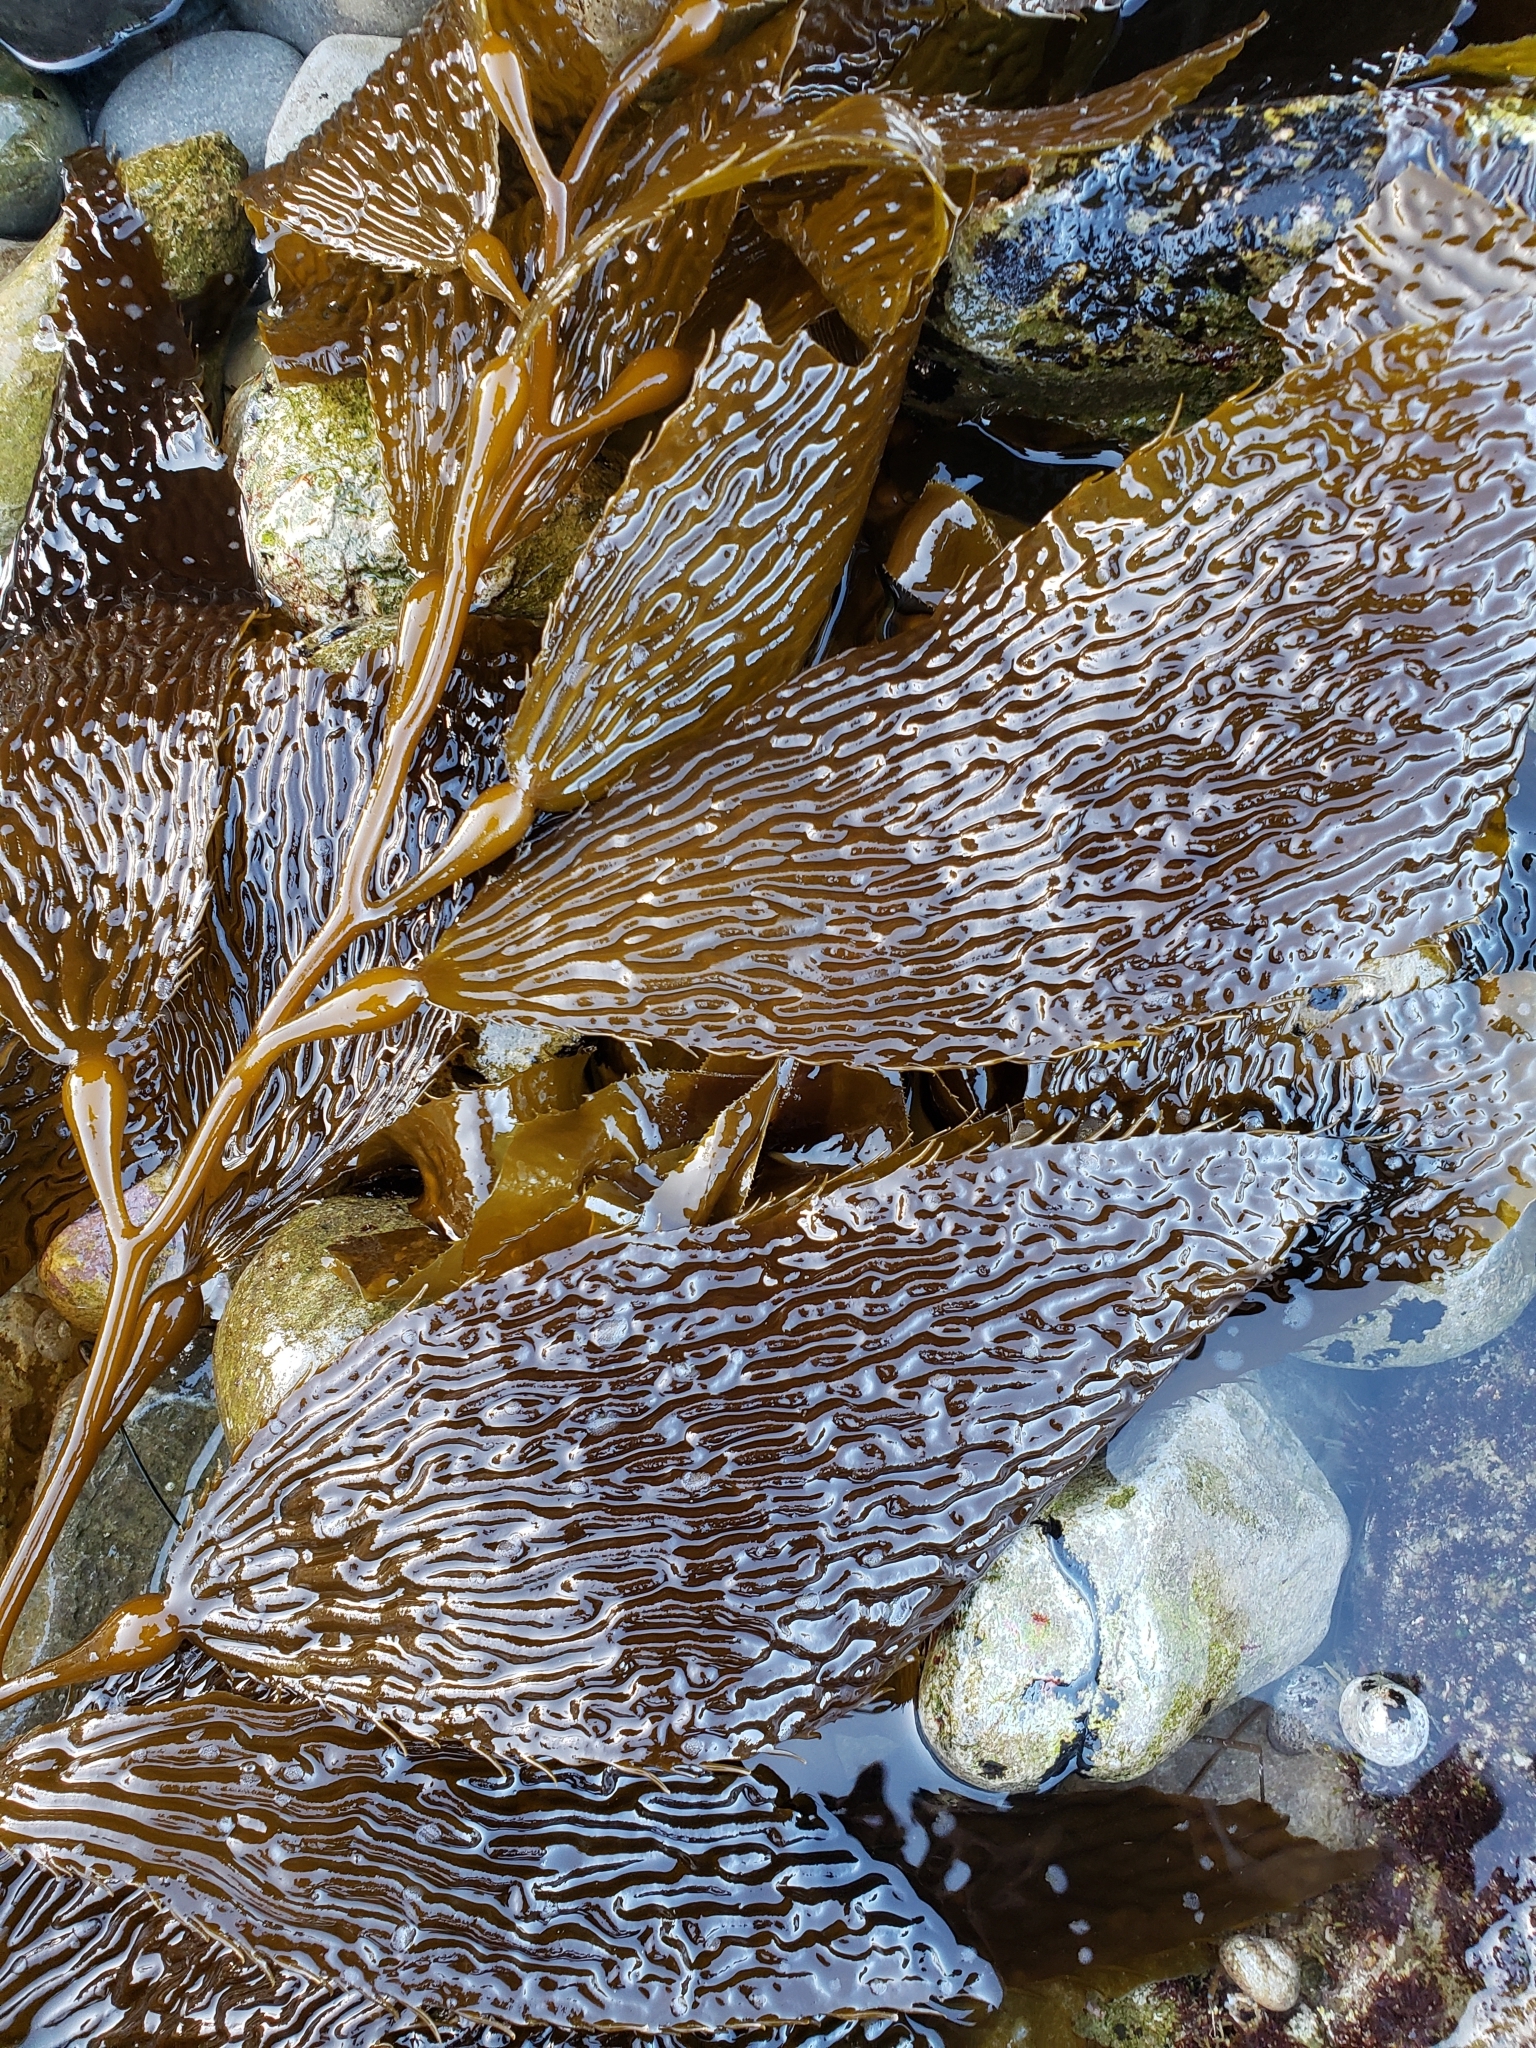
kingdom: Chromista
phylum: Ochrophyta
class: Phaeophyceae
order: Laminariales
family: Laminariaceae
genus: Macrocystis
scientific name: Macrocystis pyrifera
